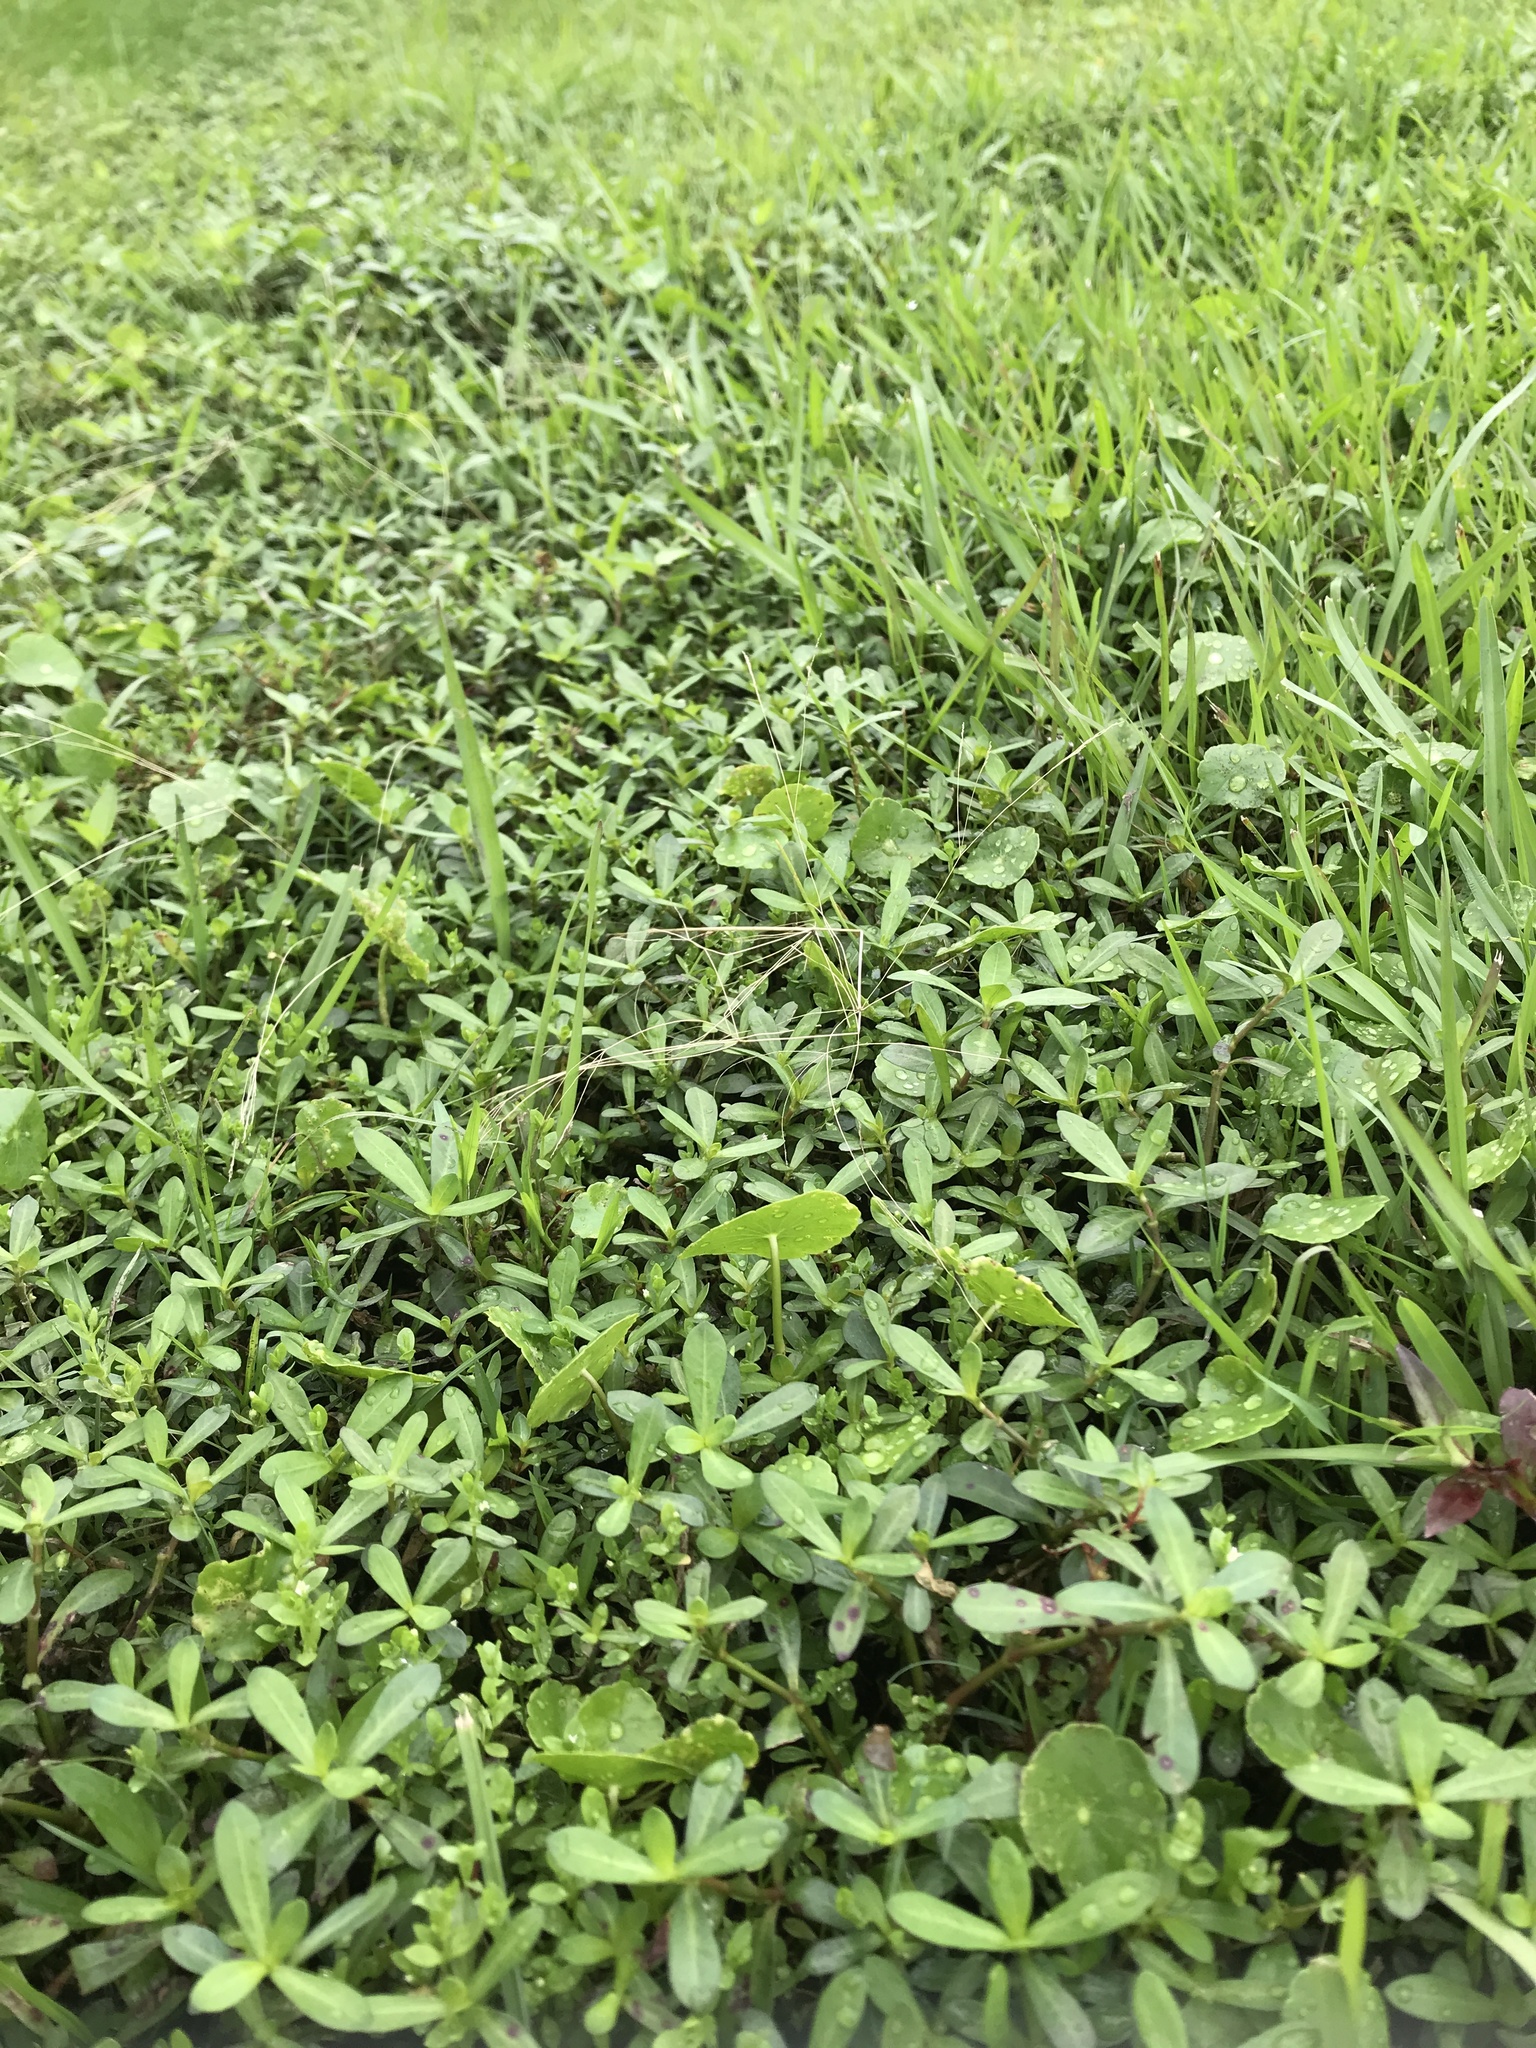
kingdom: Plantae
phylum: Tracheophyta
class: Magnoliopsida
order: Caryophyllales
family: Amaranthaceae
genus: Alternanthera
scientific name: Alternanthera philoxeroides
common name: Alligatorweed
